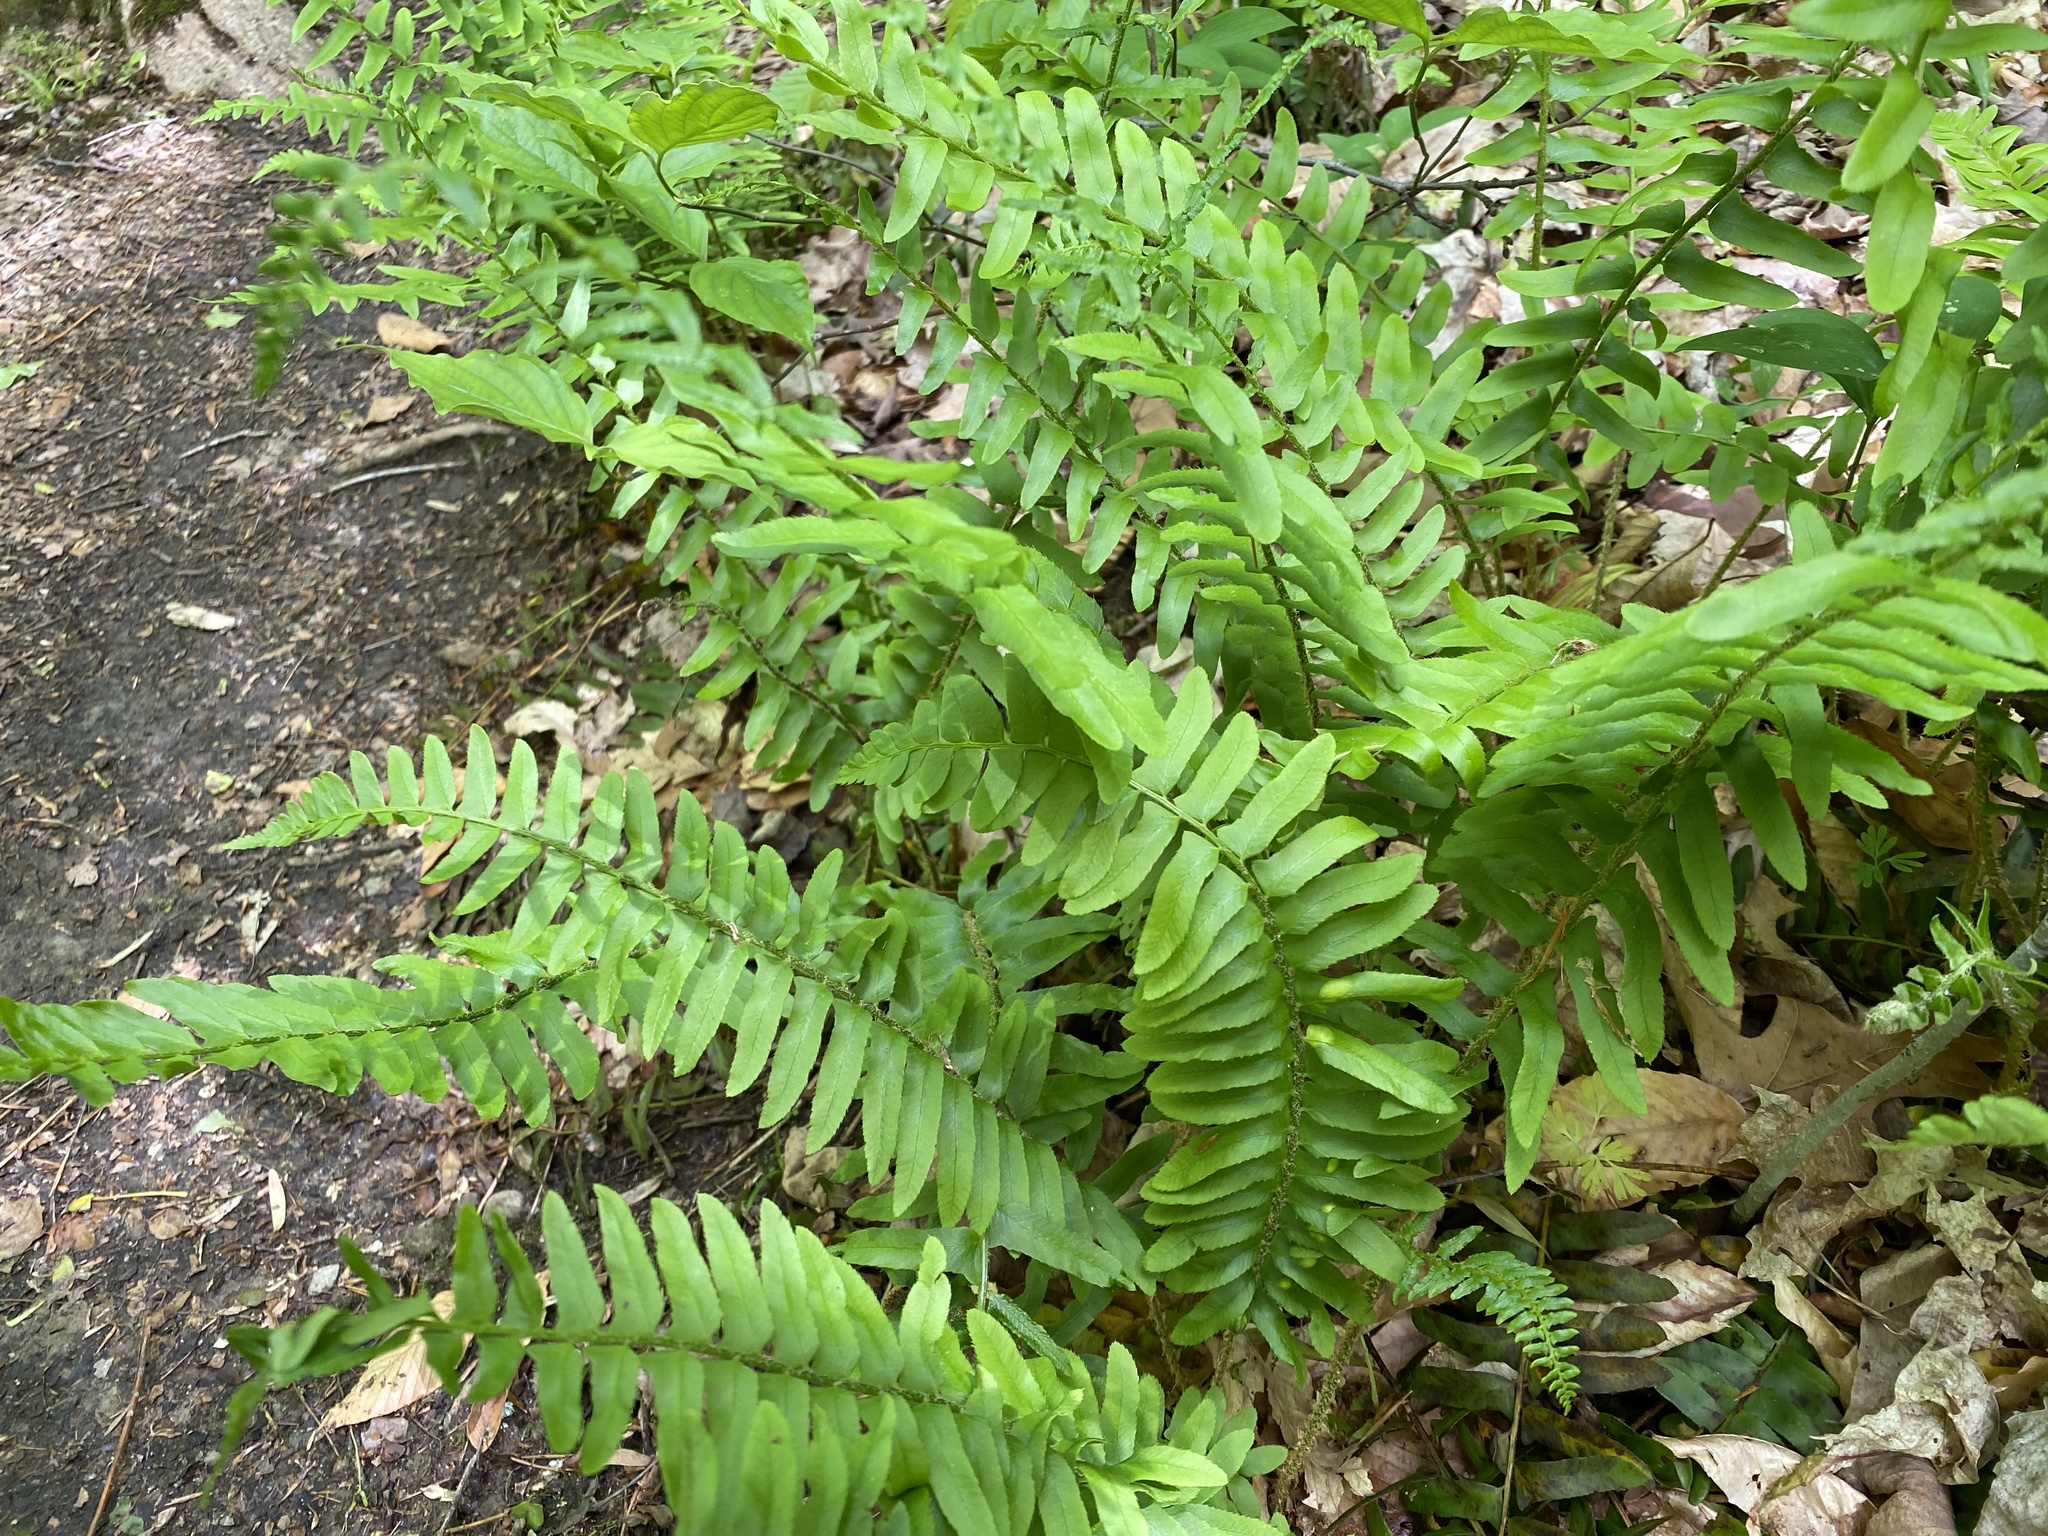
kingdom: Plantae
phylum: Tracheophyta
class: Polypodiopsida
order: Polypodiales
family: Dryopteridaceae
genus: Polystichum
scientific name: Polystichum acrostichoides
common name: Christmas fern
